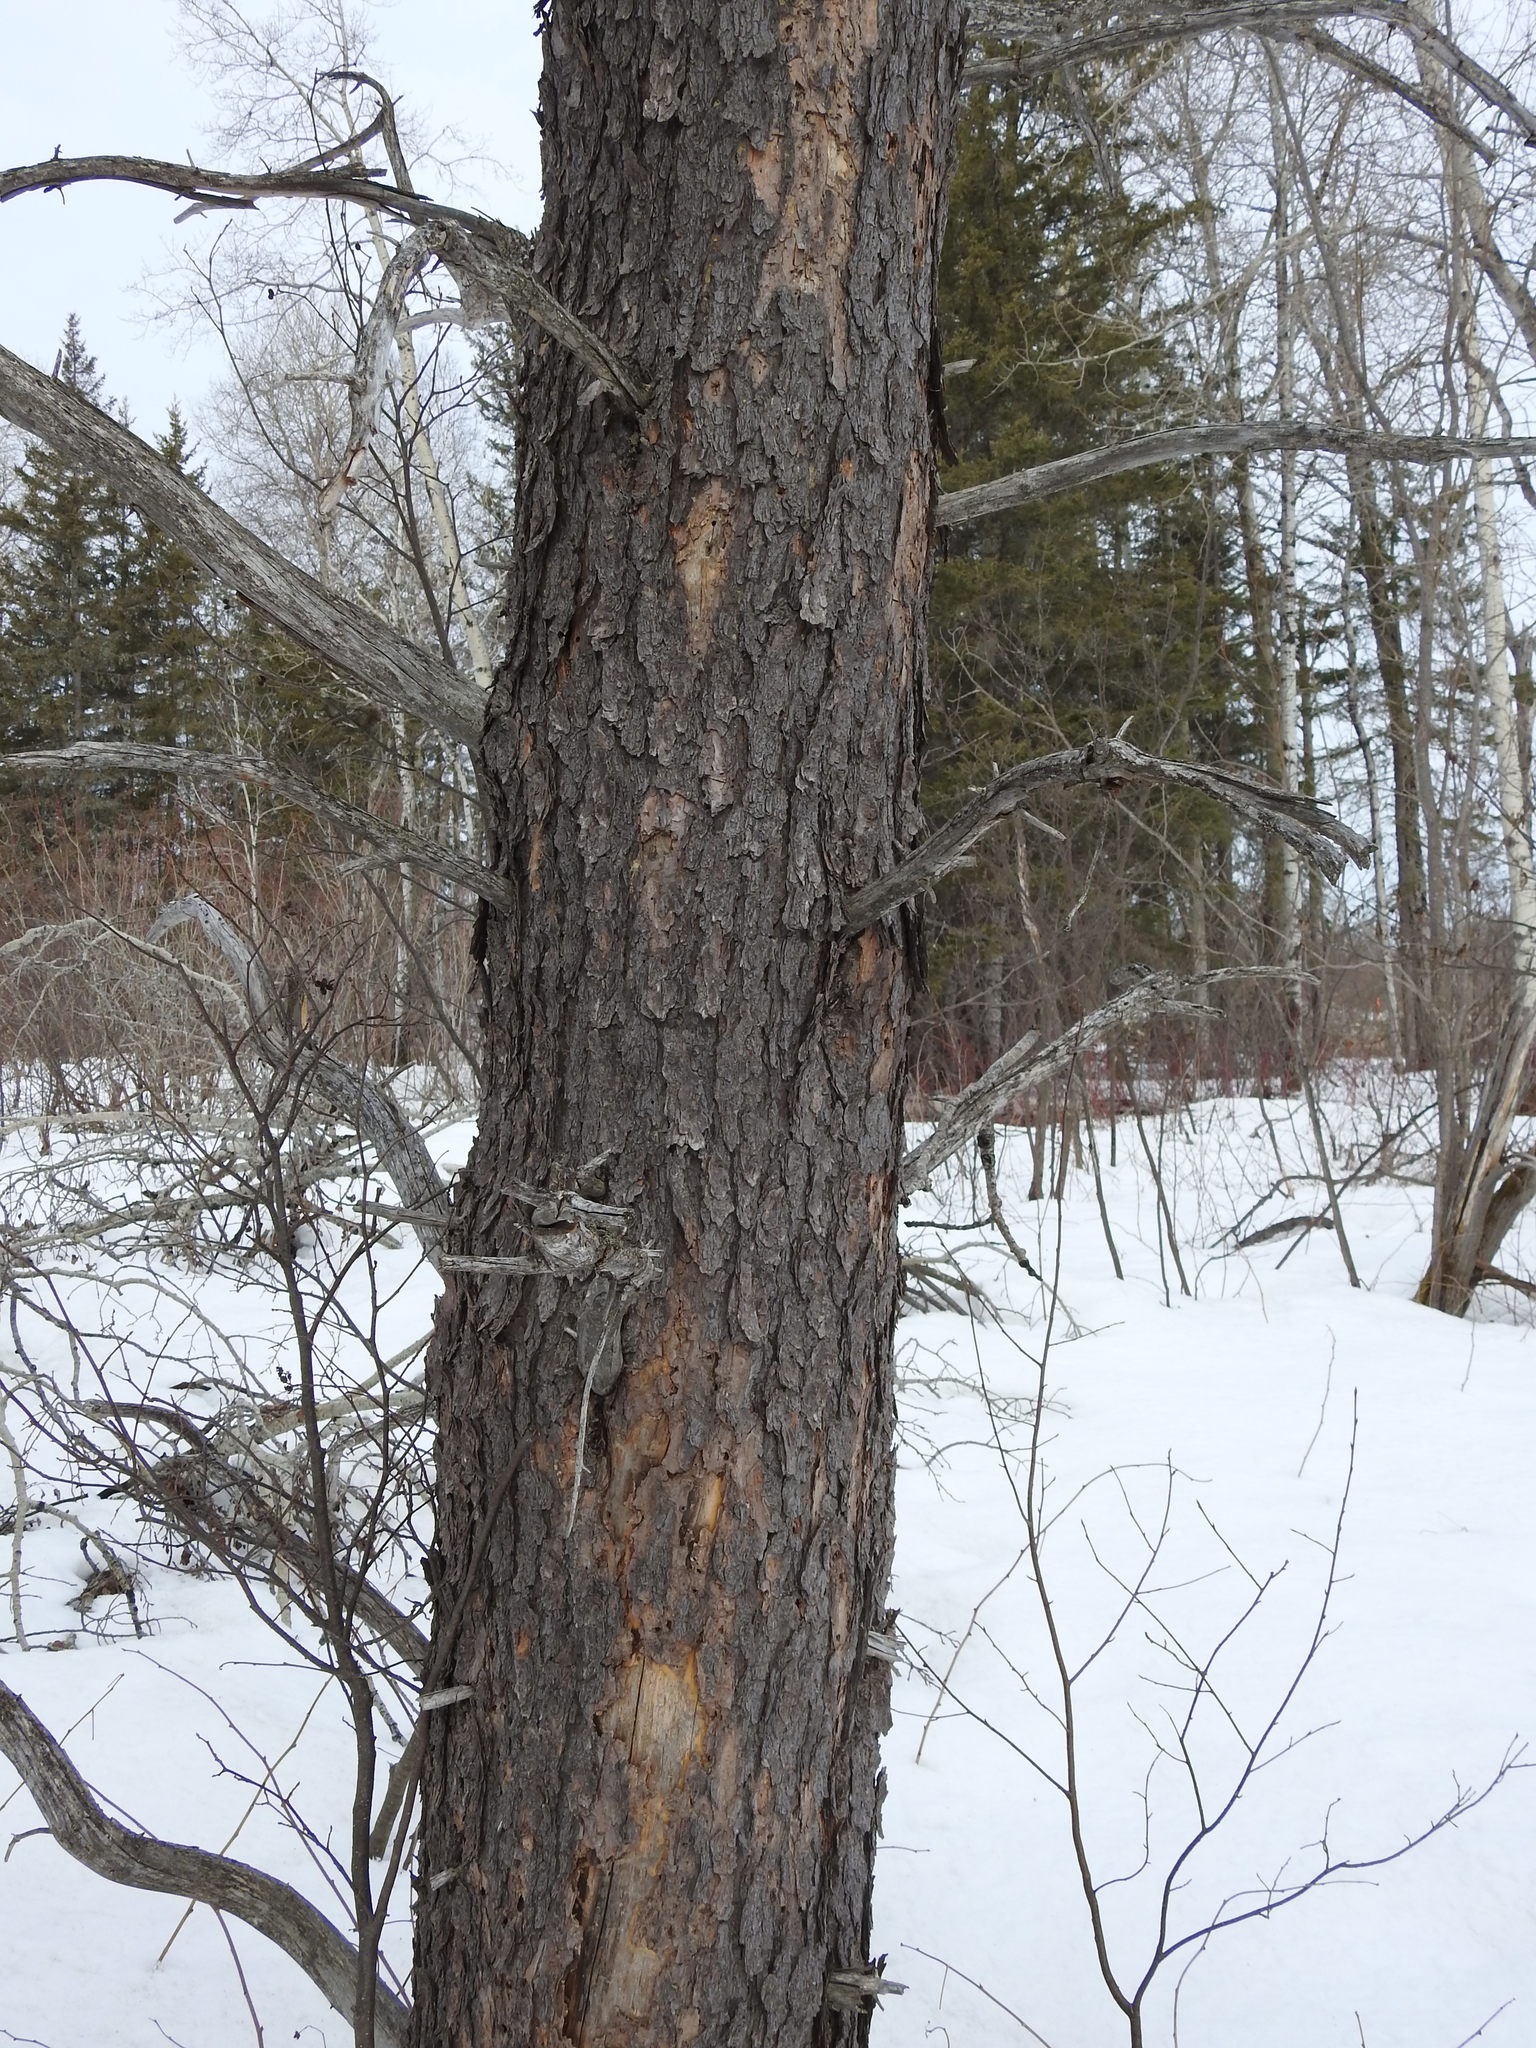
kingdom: Plantae
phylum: Tracheophyta
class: Pinopsida
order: Pinales
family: Pinaceae
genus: Pinus
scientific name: Pinus banksiana
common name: Jack pine
